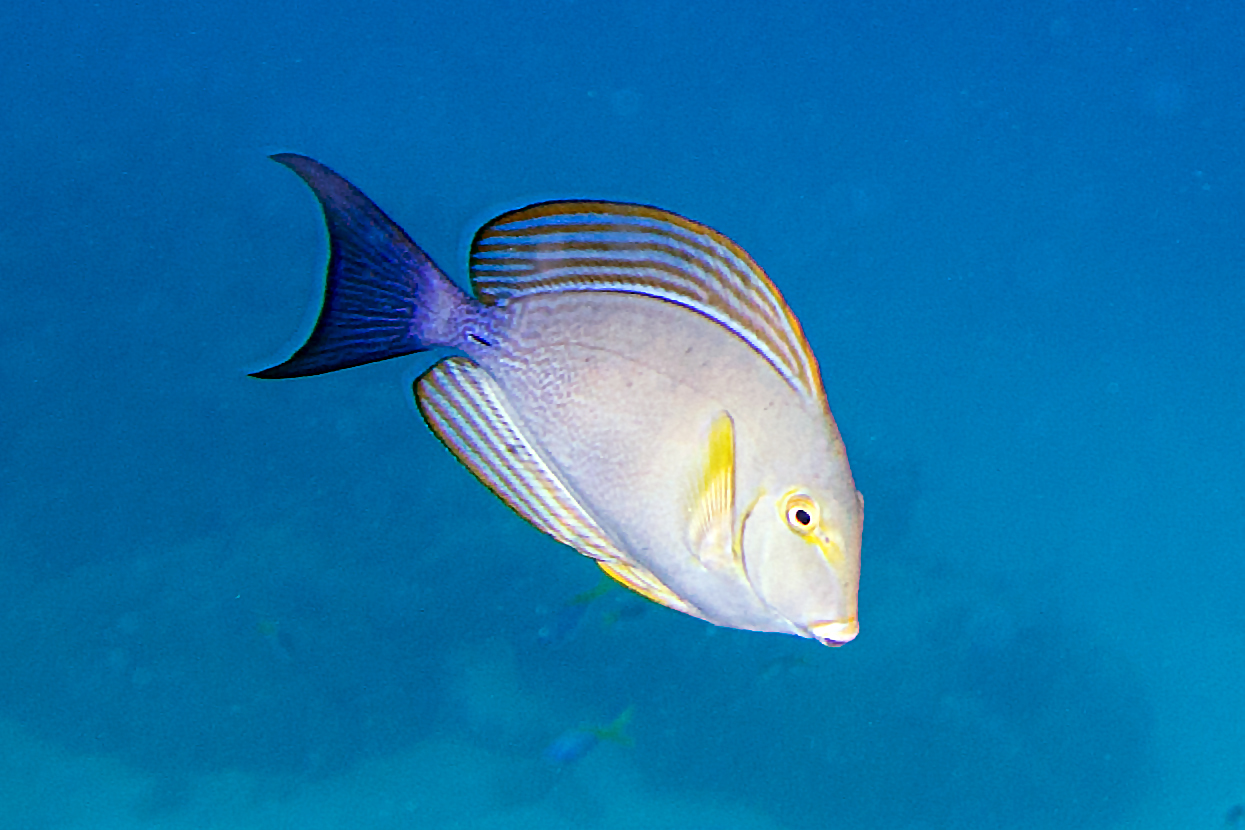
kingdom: Animalia
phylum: Chordata
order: Perciformes
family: Acanthuridae
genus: Acanthurus
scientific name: Acanthurus xanthopterus
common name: Cuvier's surgeonfish
